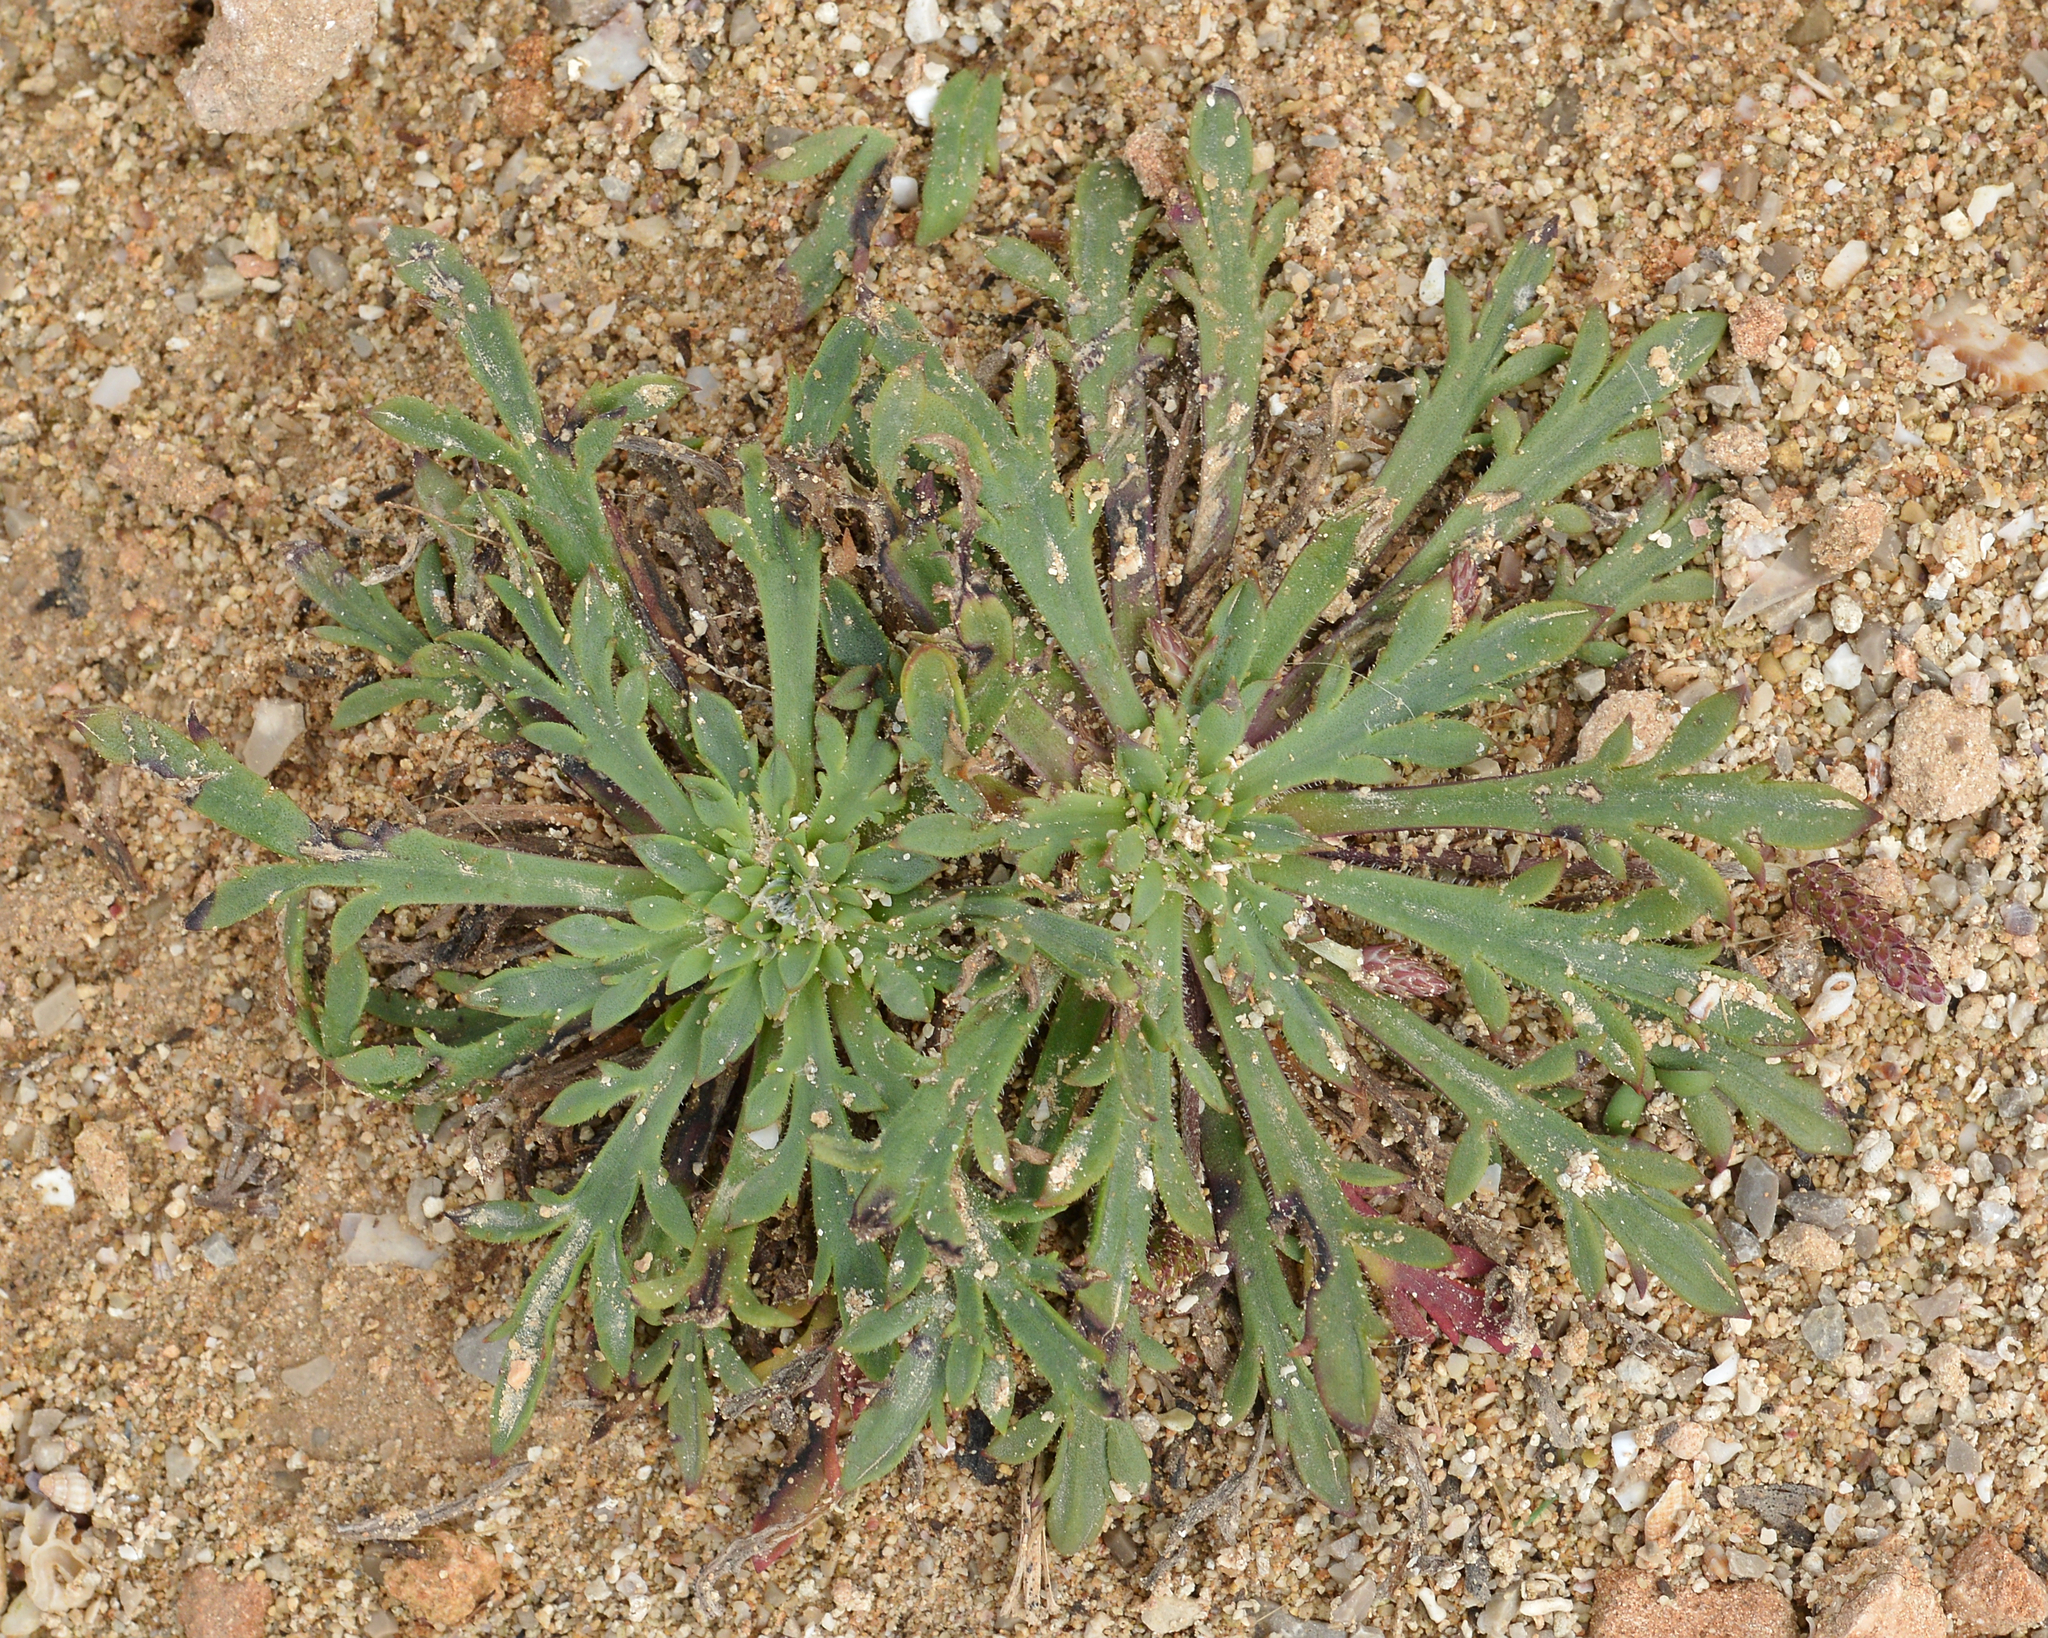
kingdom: Plantae
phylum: Tracheophyta
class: Magnoliopsida
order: Lamiales
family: Plantaginaceae
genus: Plantago
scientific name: Plantago coronopus
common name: Buck's-horn plantain
